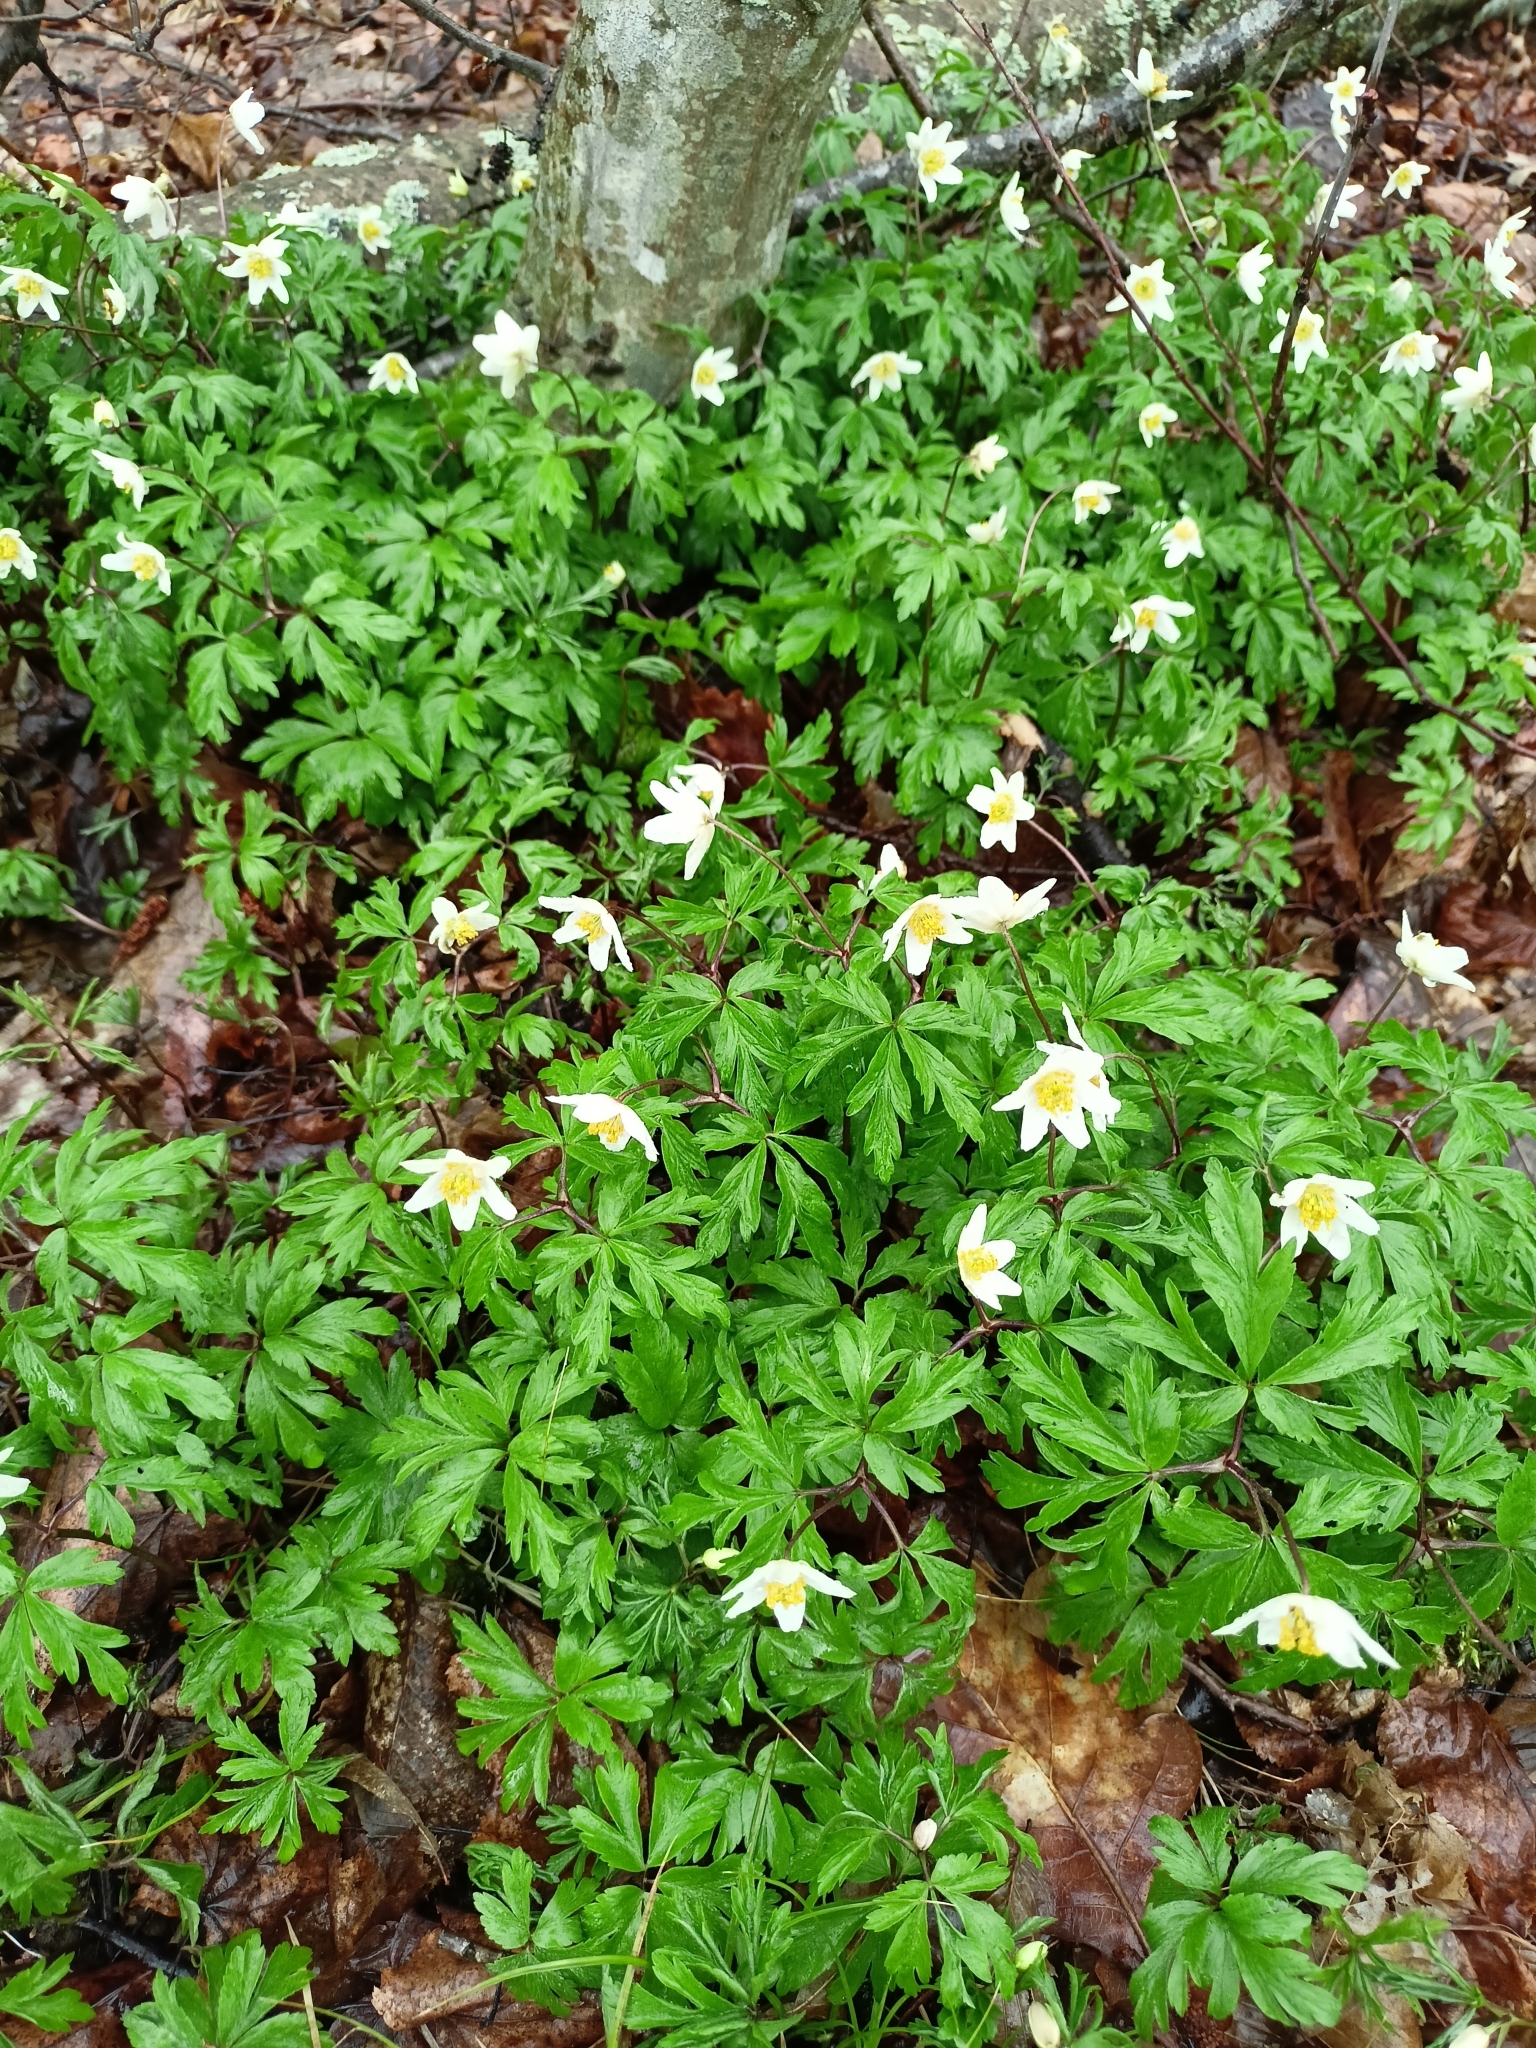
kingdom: Plantae
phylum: Tracheophyta
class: Magnoliopsida
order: Ranunculales
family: Ranunculaceae
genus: Anemone
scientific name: Anemone nemorosa
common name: Wood anemone
